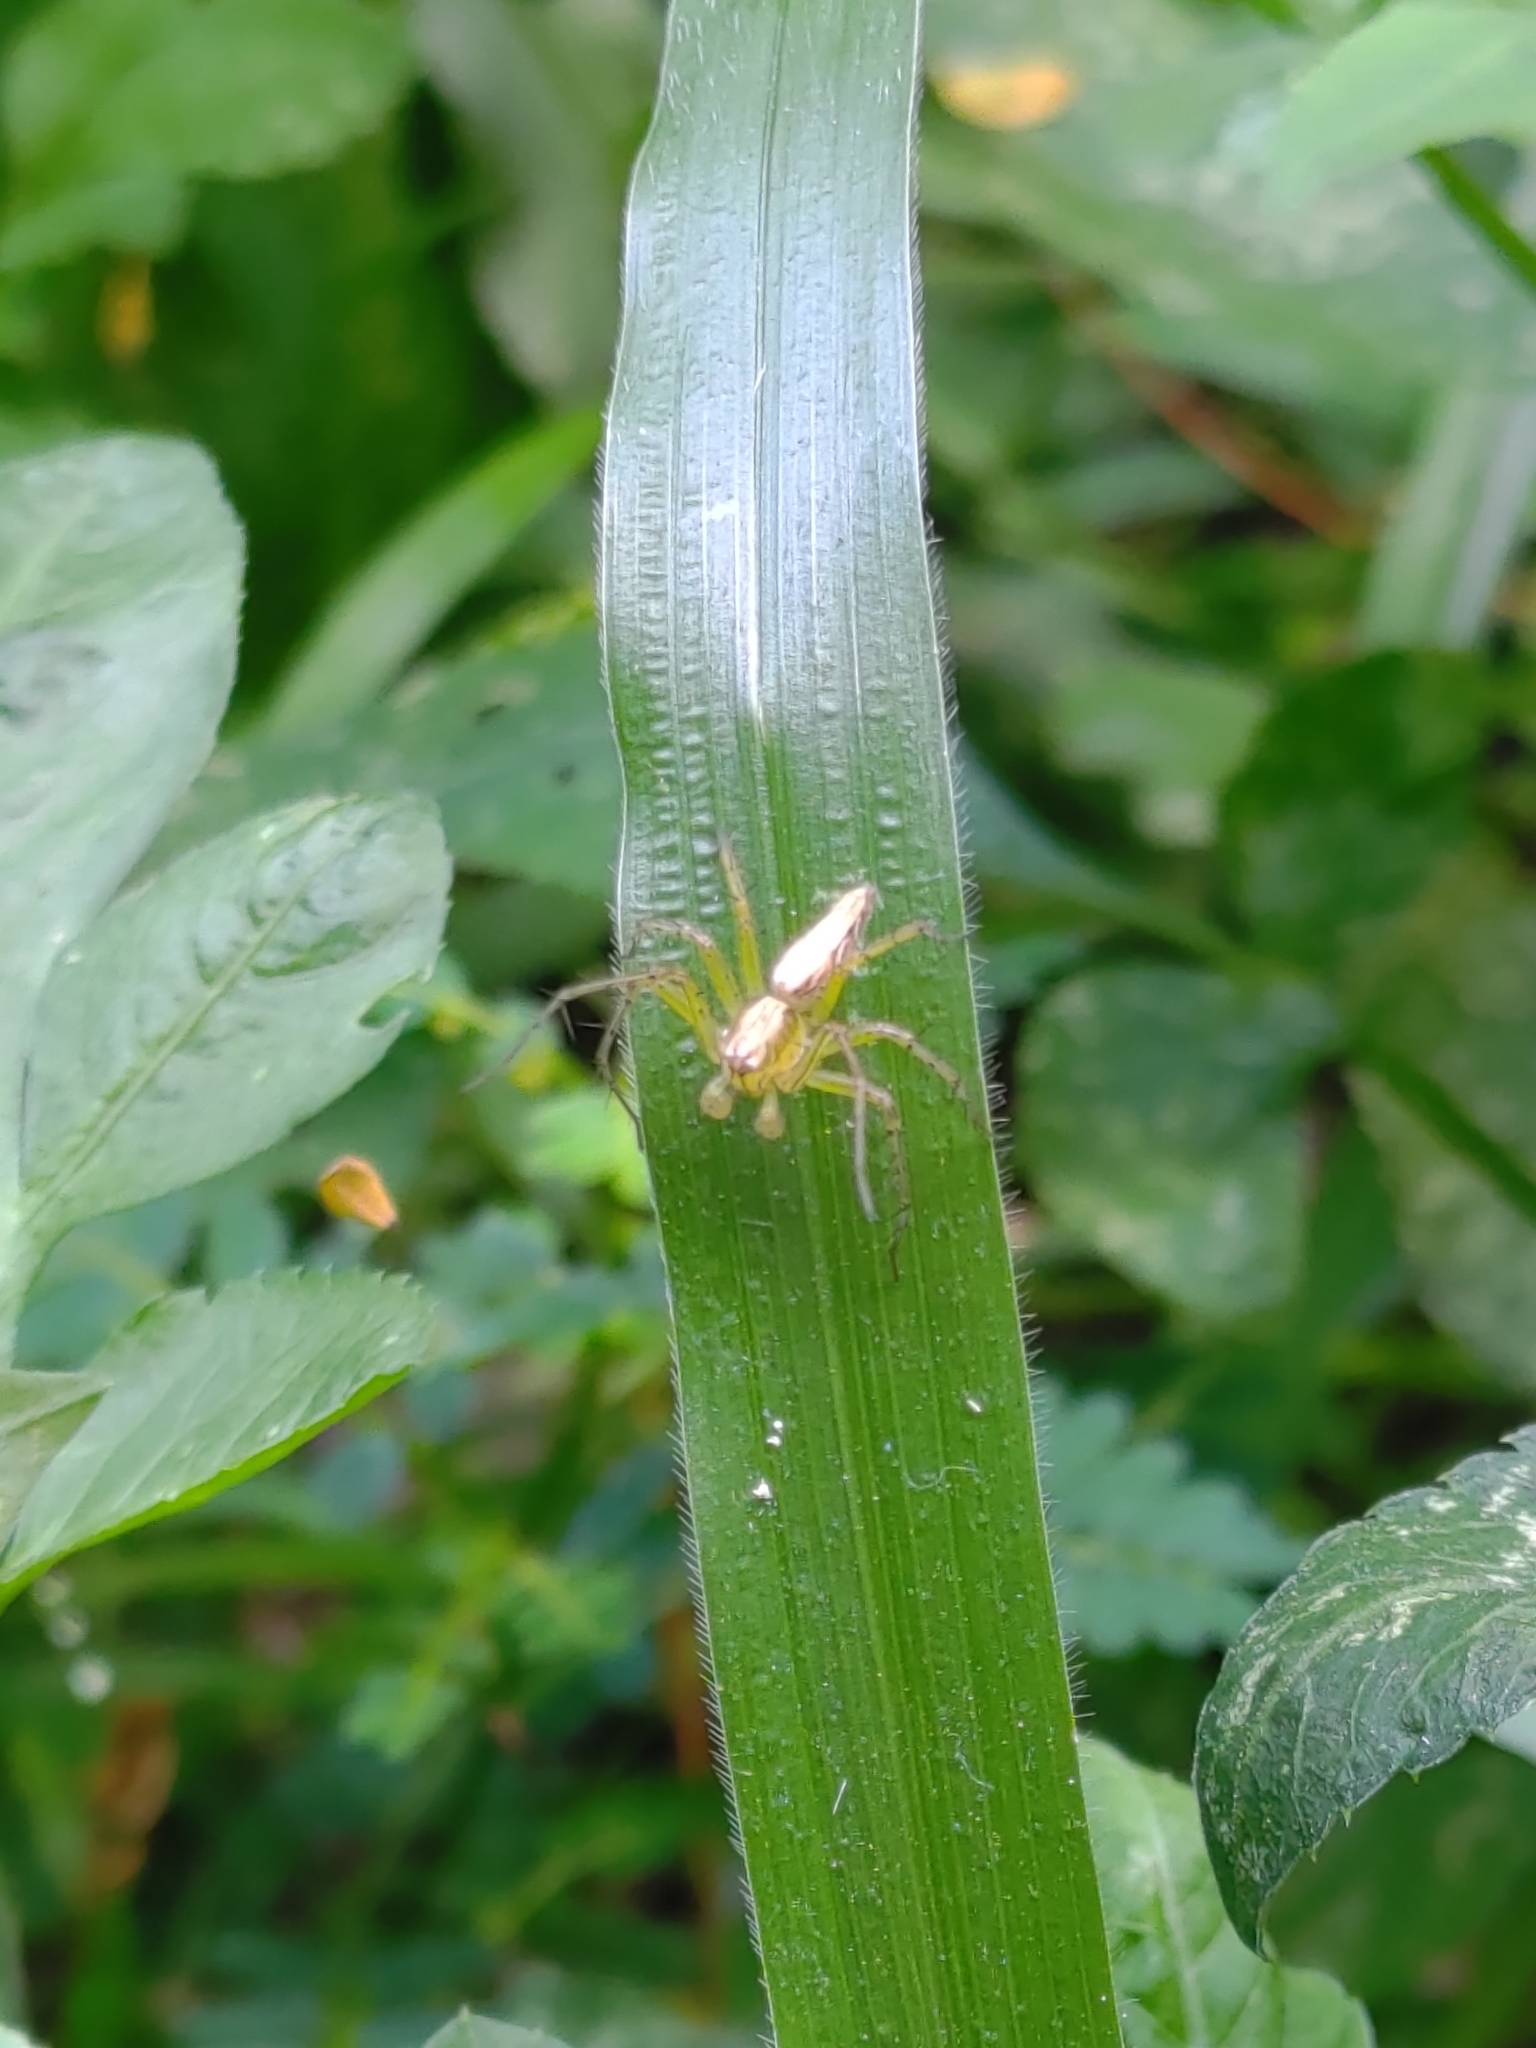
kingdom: Animalia
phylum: Arthropoda
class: Arachnida
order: Araneae
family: Oxyopidae
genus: Oxyopes
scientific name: Oxyopes sertatus
